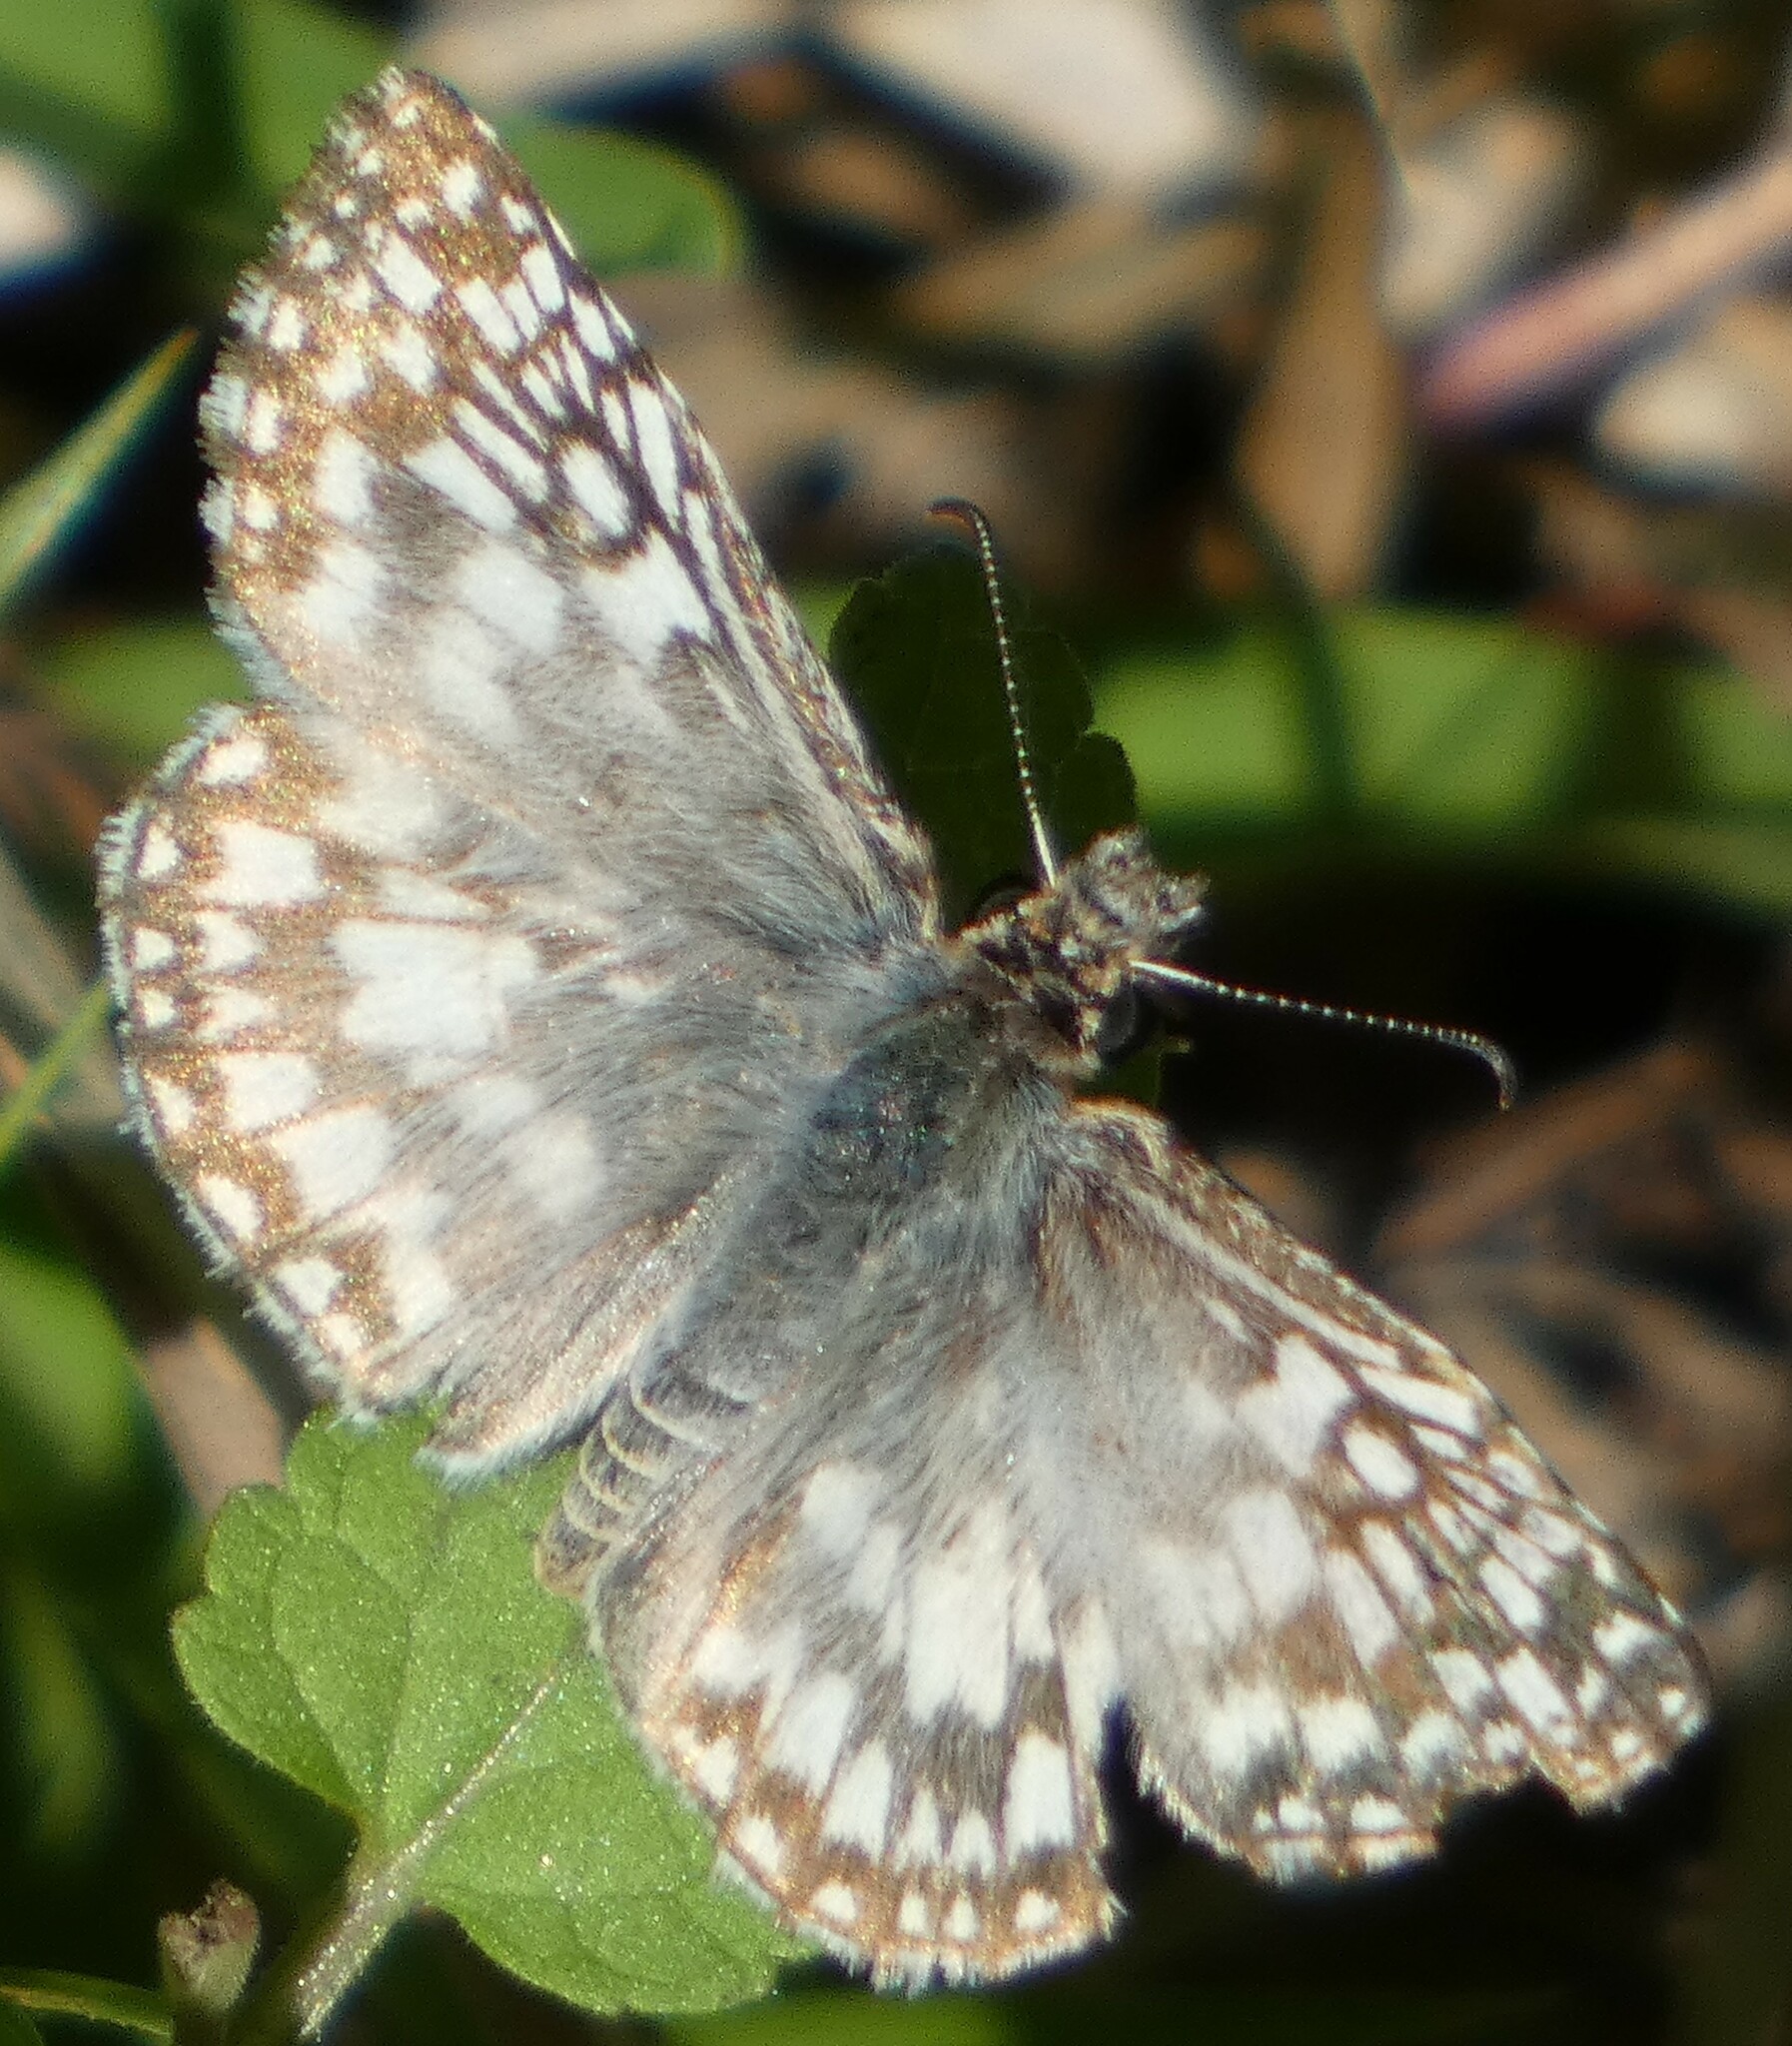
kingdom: Animalia
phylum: Arthropoda
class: Insecta
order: Lepidoptera
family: Hesperiidae
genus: Pyrgus
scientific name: Pyrgus oileus
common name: Tropical checkered-skipper
